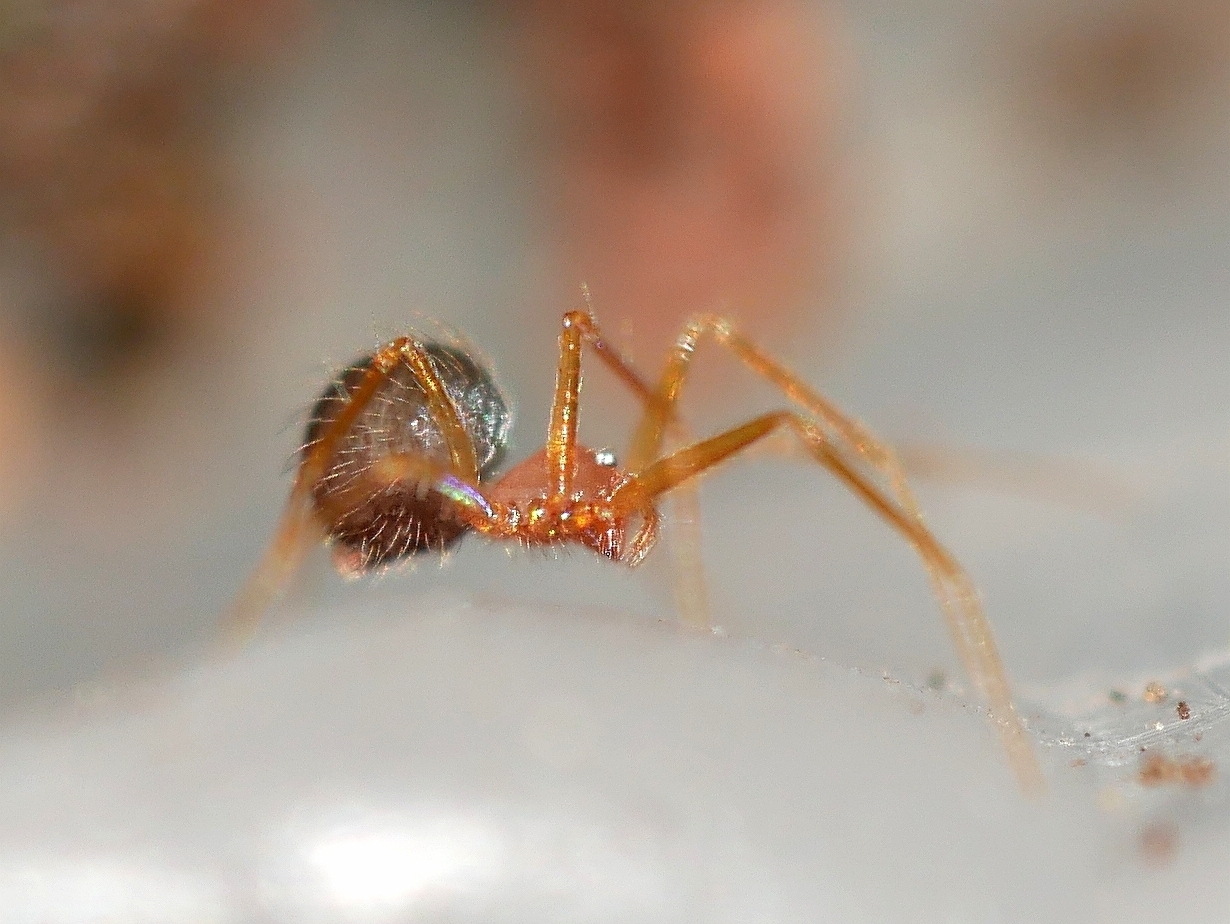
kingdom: Animalia
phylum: Arthropoda
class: Arachnida
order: Araneae
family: Telemidae
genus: Usofila
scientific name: Usofila pacifica
